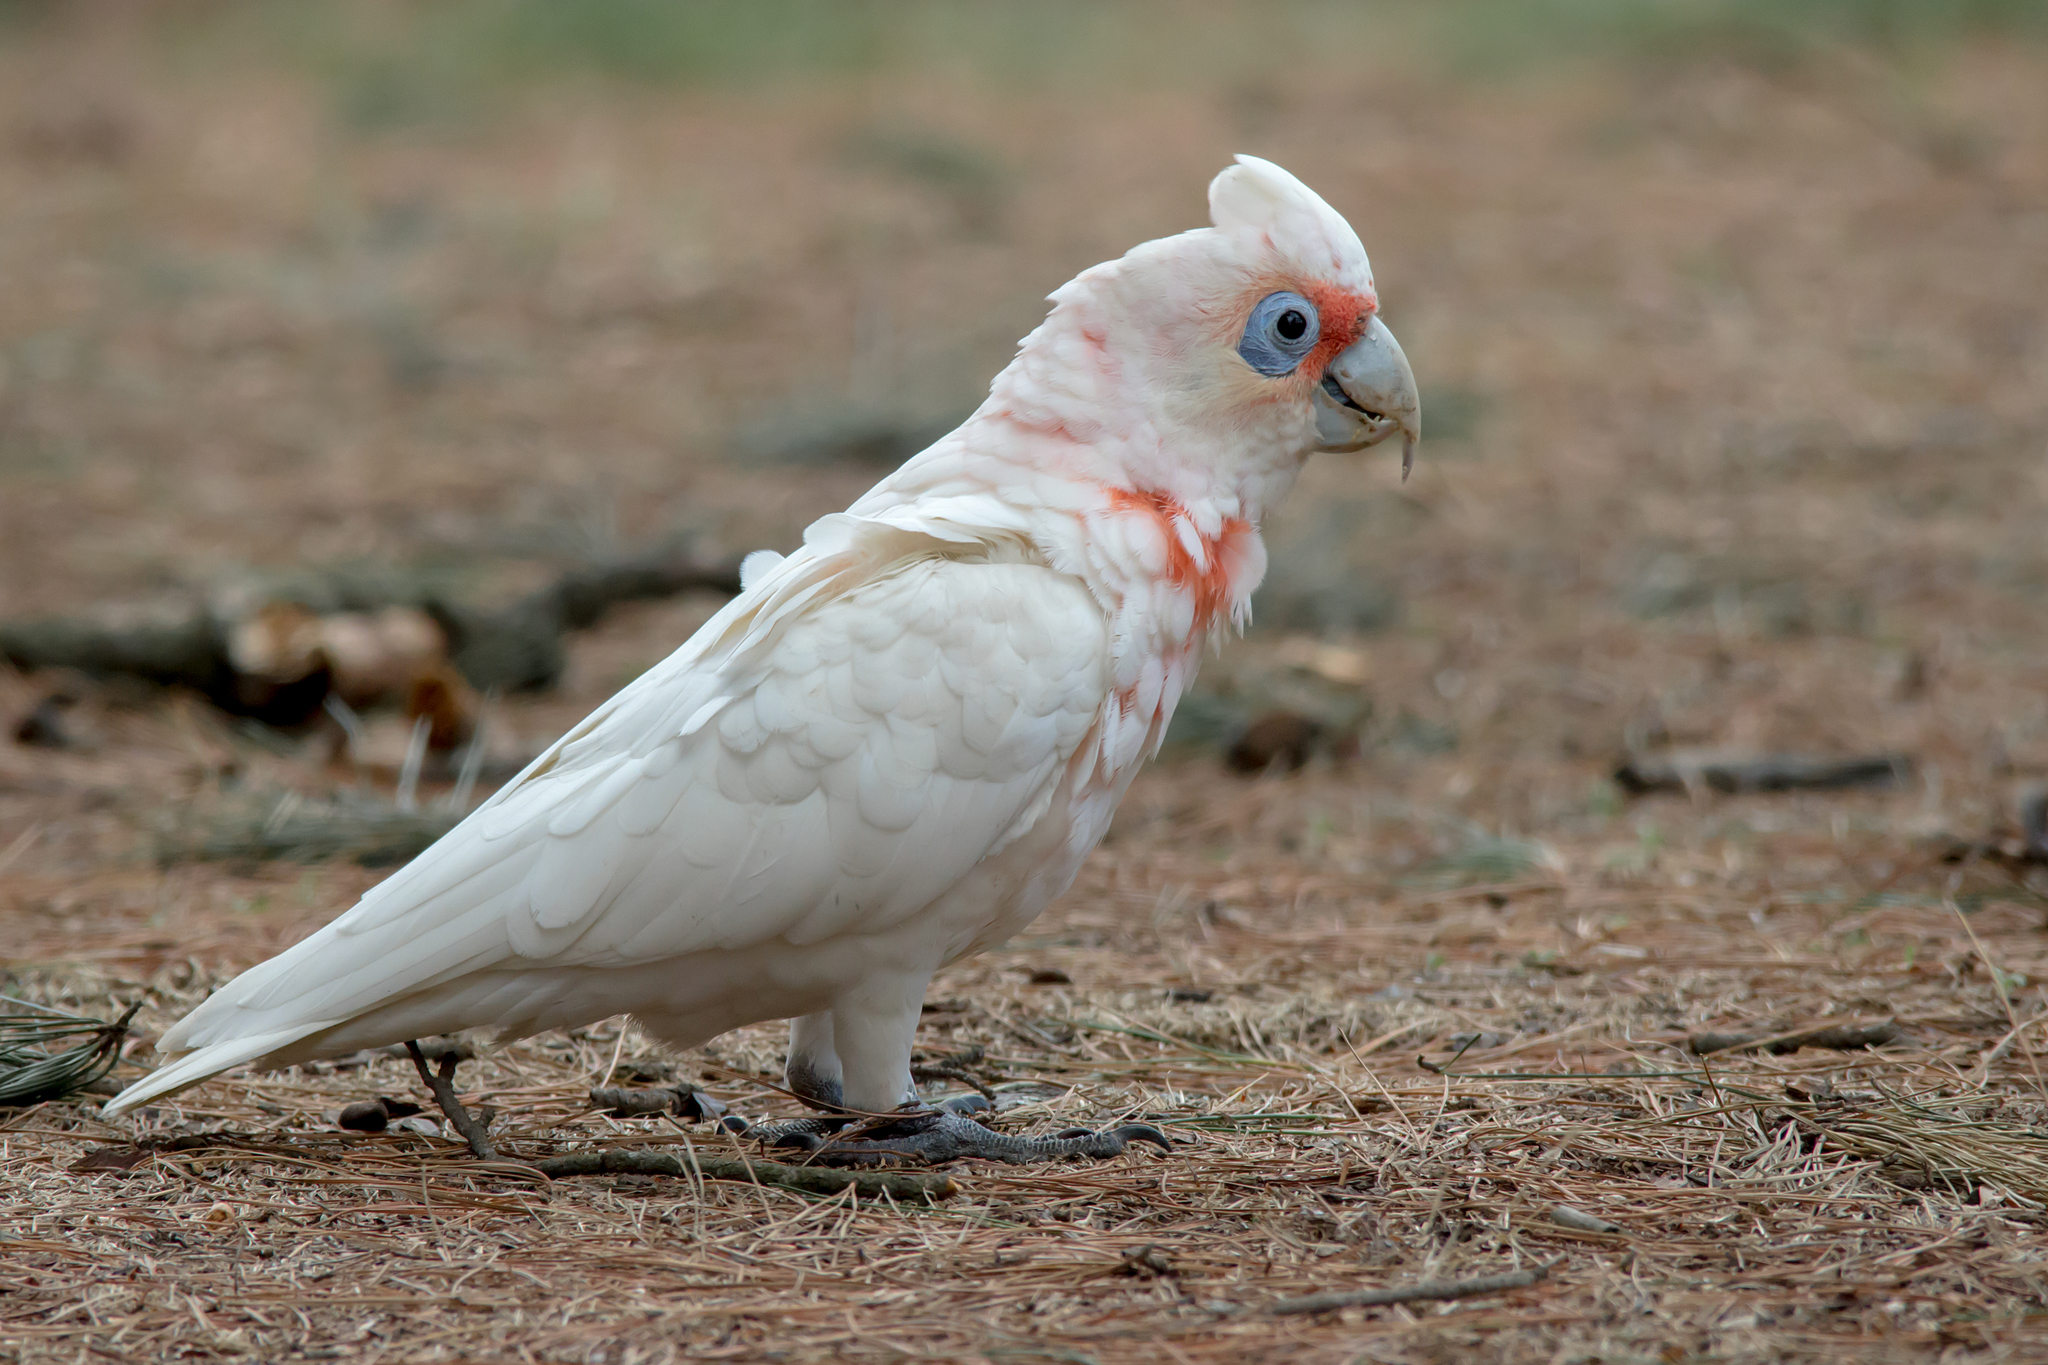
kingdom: Animalia
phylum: Chordata
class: Aves
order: Psittaciformes
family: Psittacidae
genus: Cacatua
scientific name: Cacatua tenuirostris
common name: Long-billed corella
